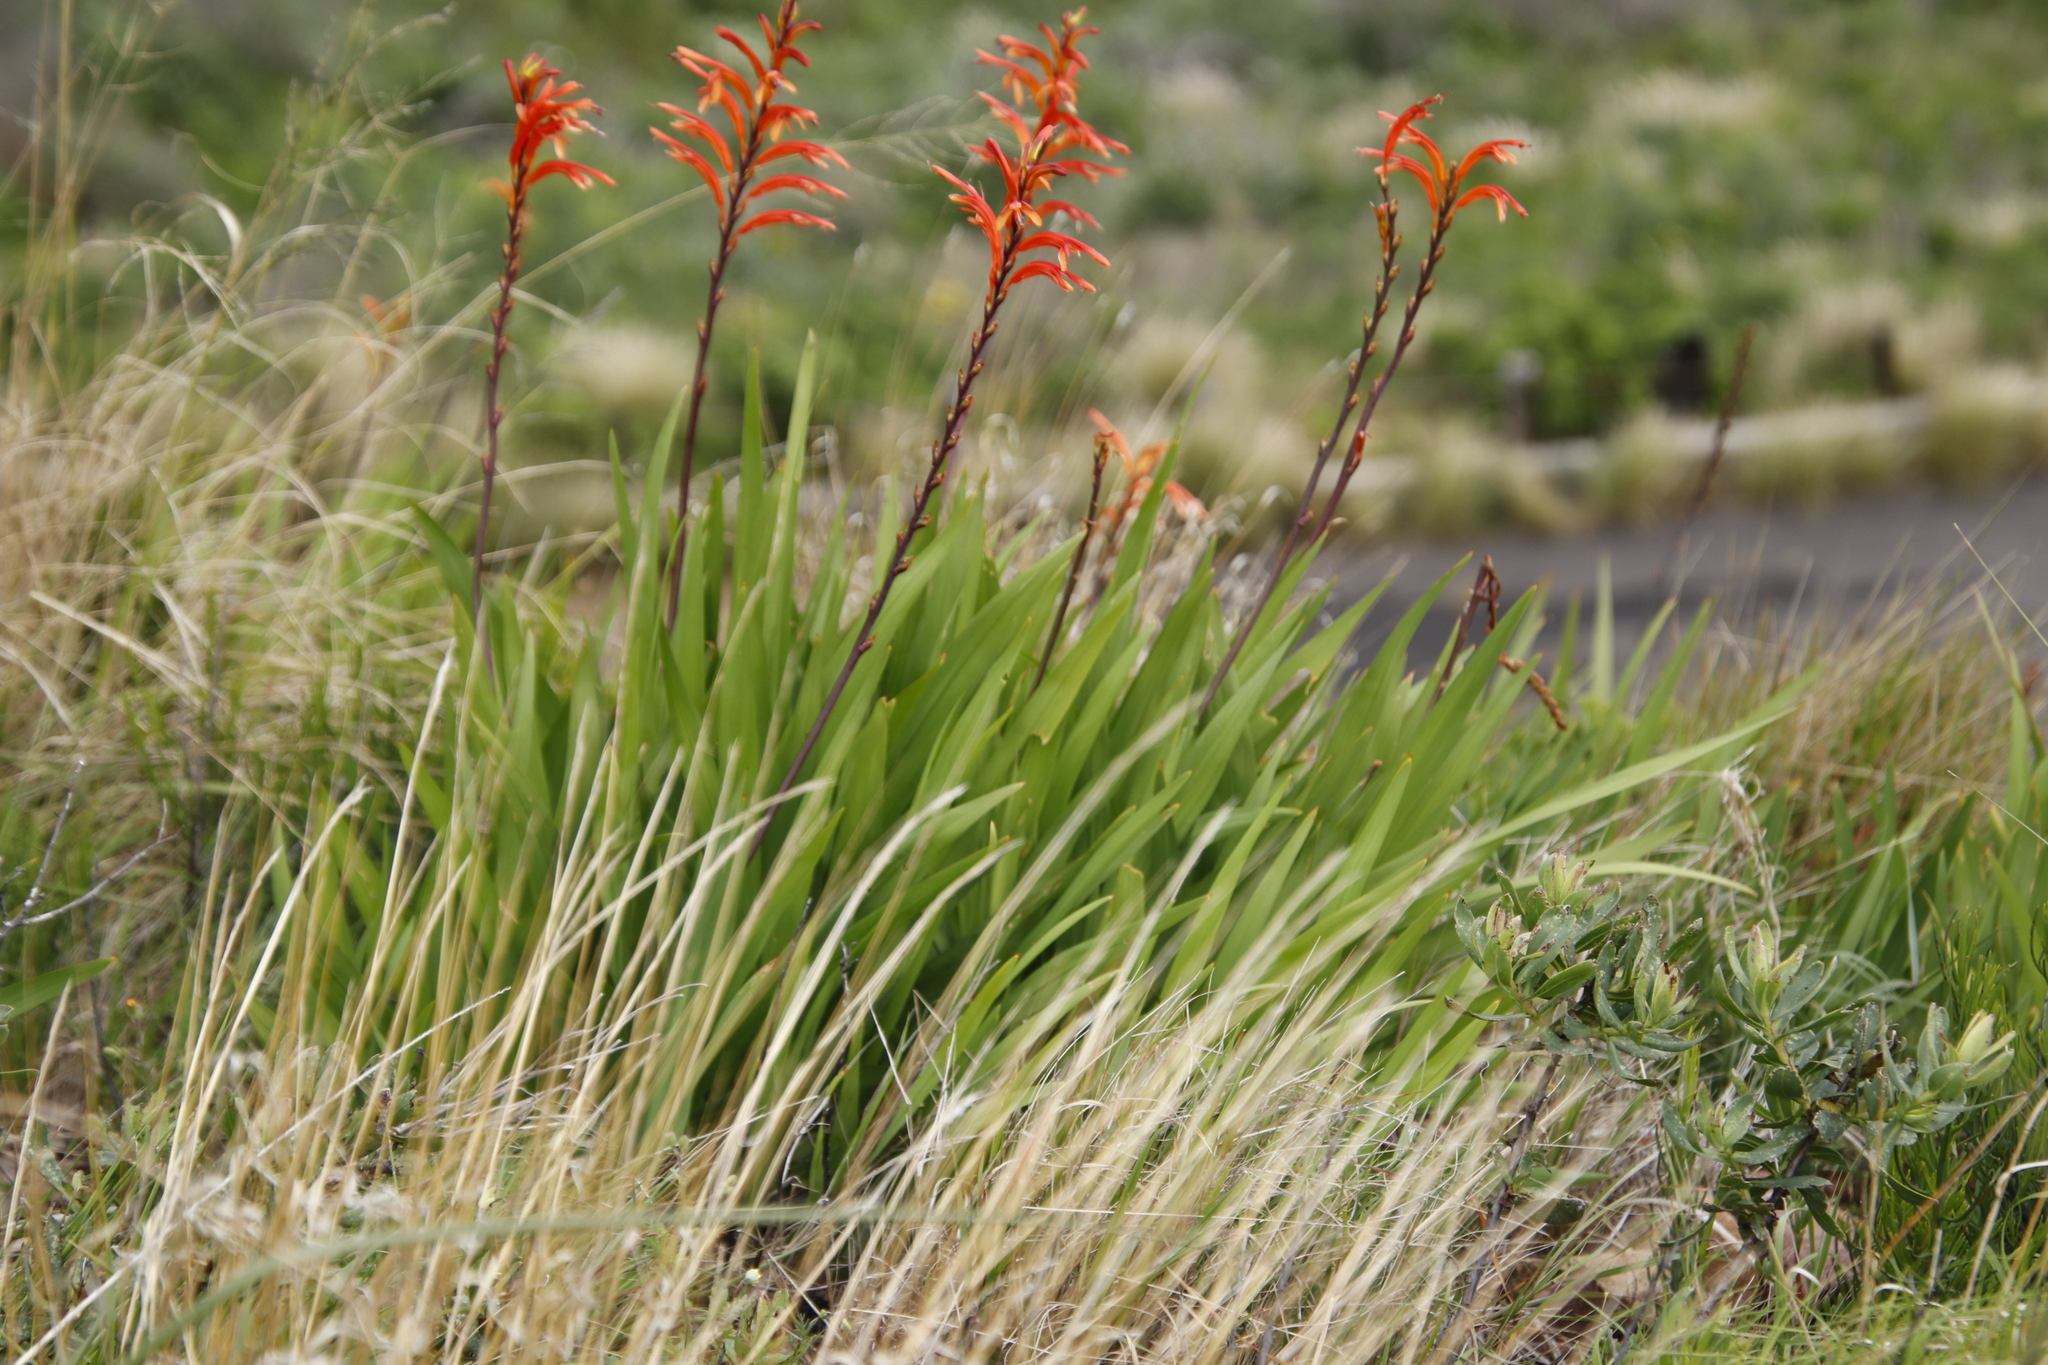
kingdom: Plantae
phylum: Tracheophyta
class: Liliopsida
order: Asparagales
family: Iridaceae
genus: Chasmanthe
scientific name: Chasmanthe floribunda
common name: African cornflag
